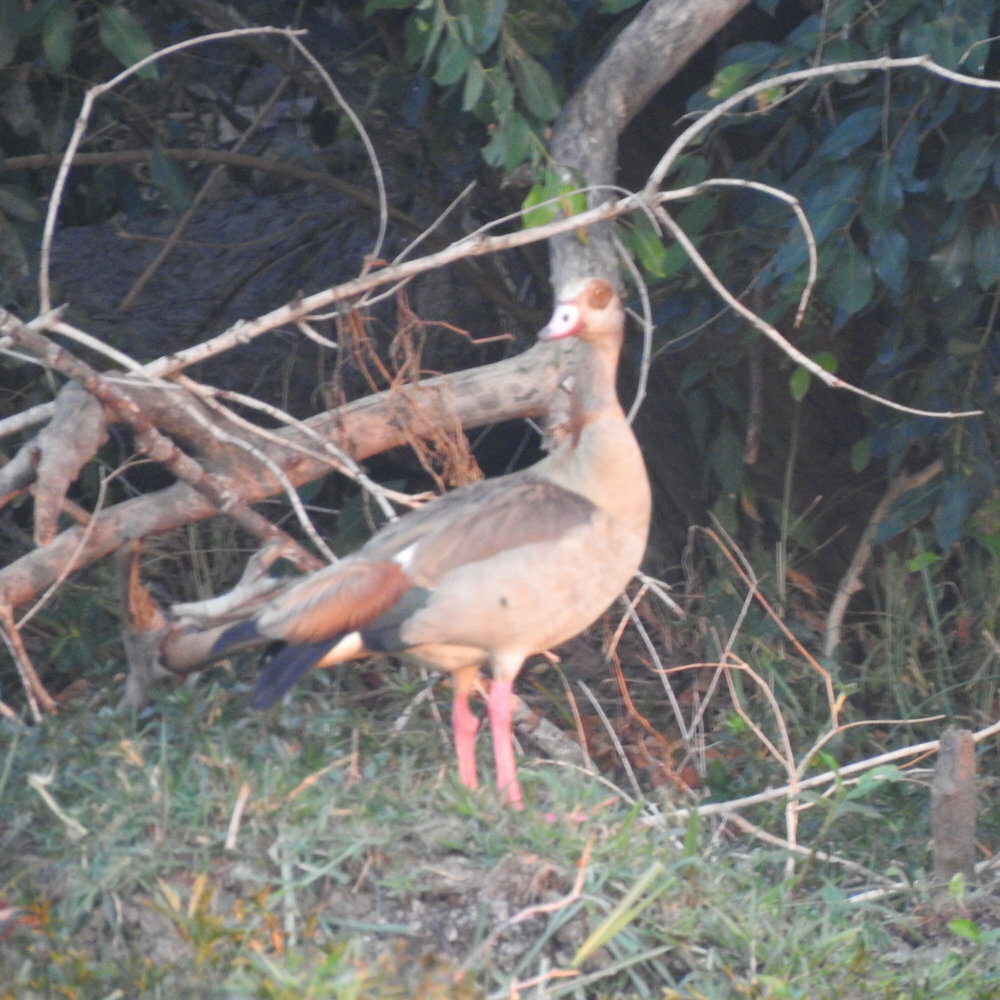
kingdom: Animalia
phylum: Chordata
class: Aves
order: Anseriformes
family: Anatidae
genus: Alopochen
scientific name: Alopochen aegyptiaca
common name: Egyptian goose
